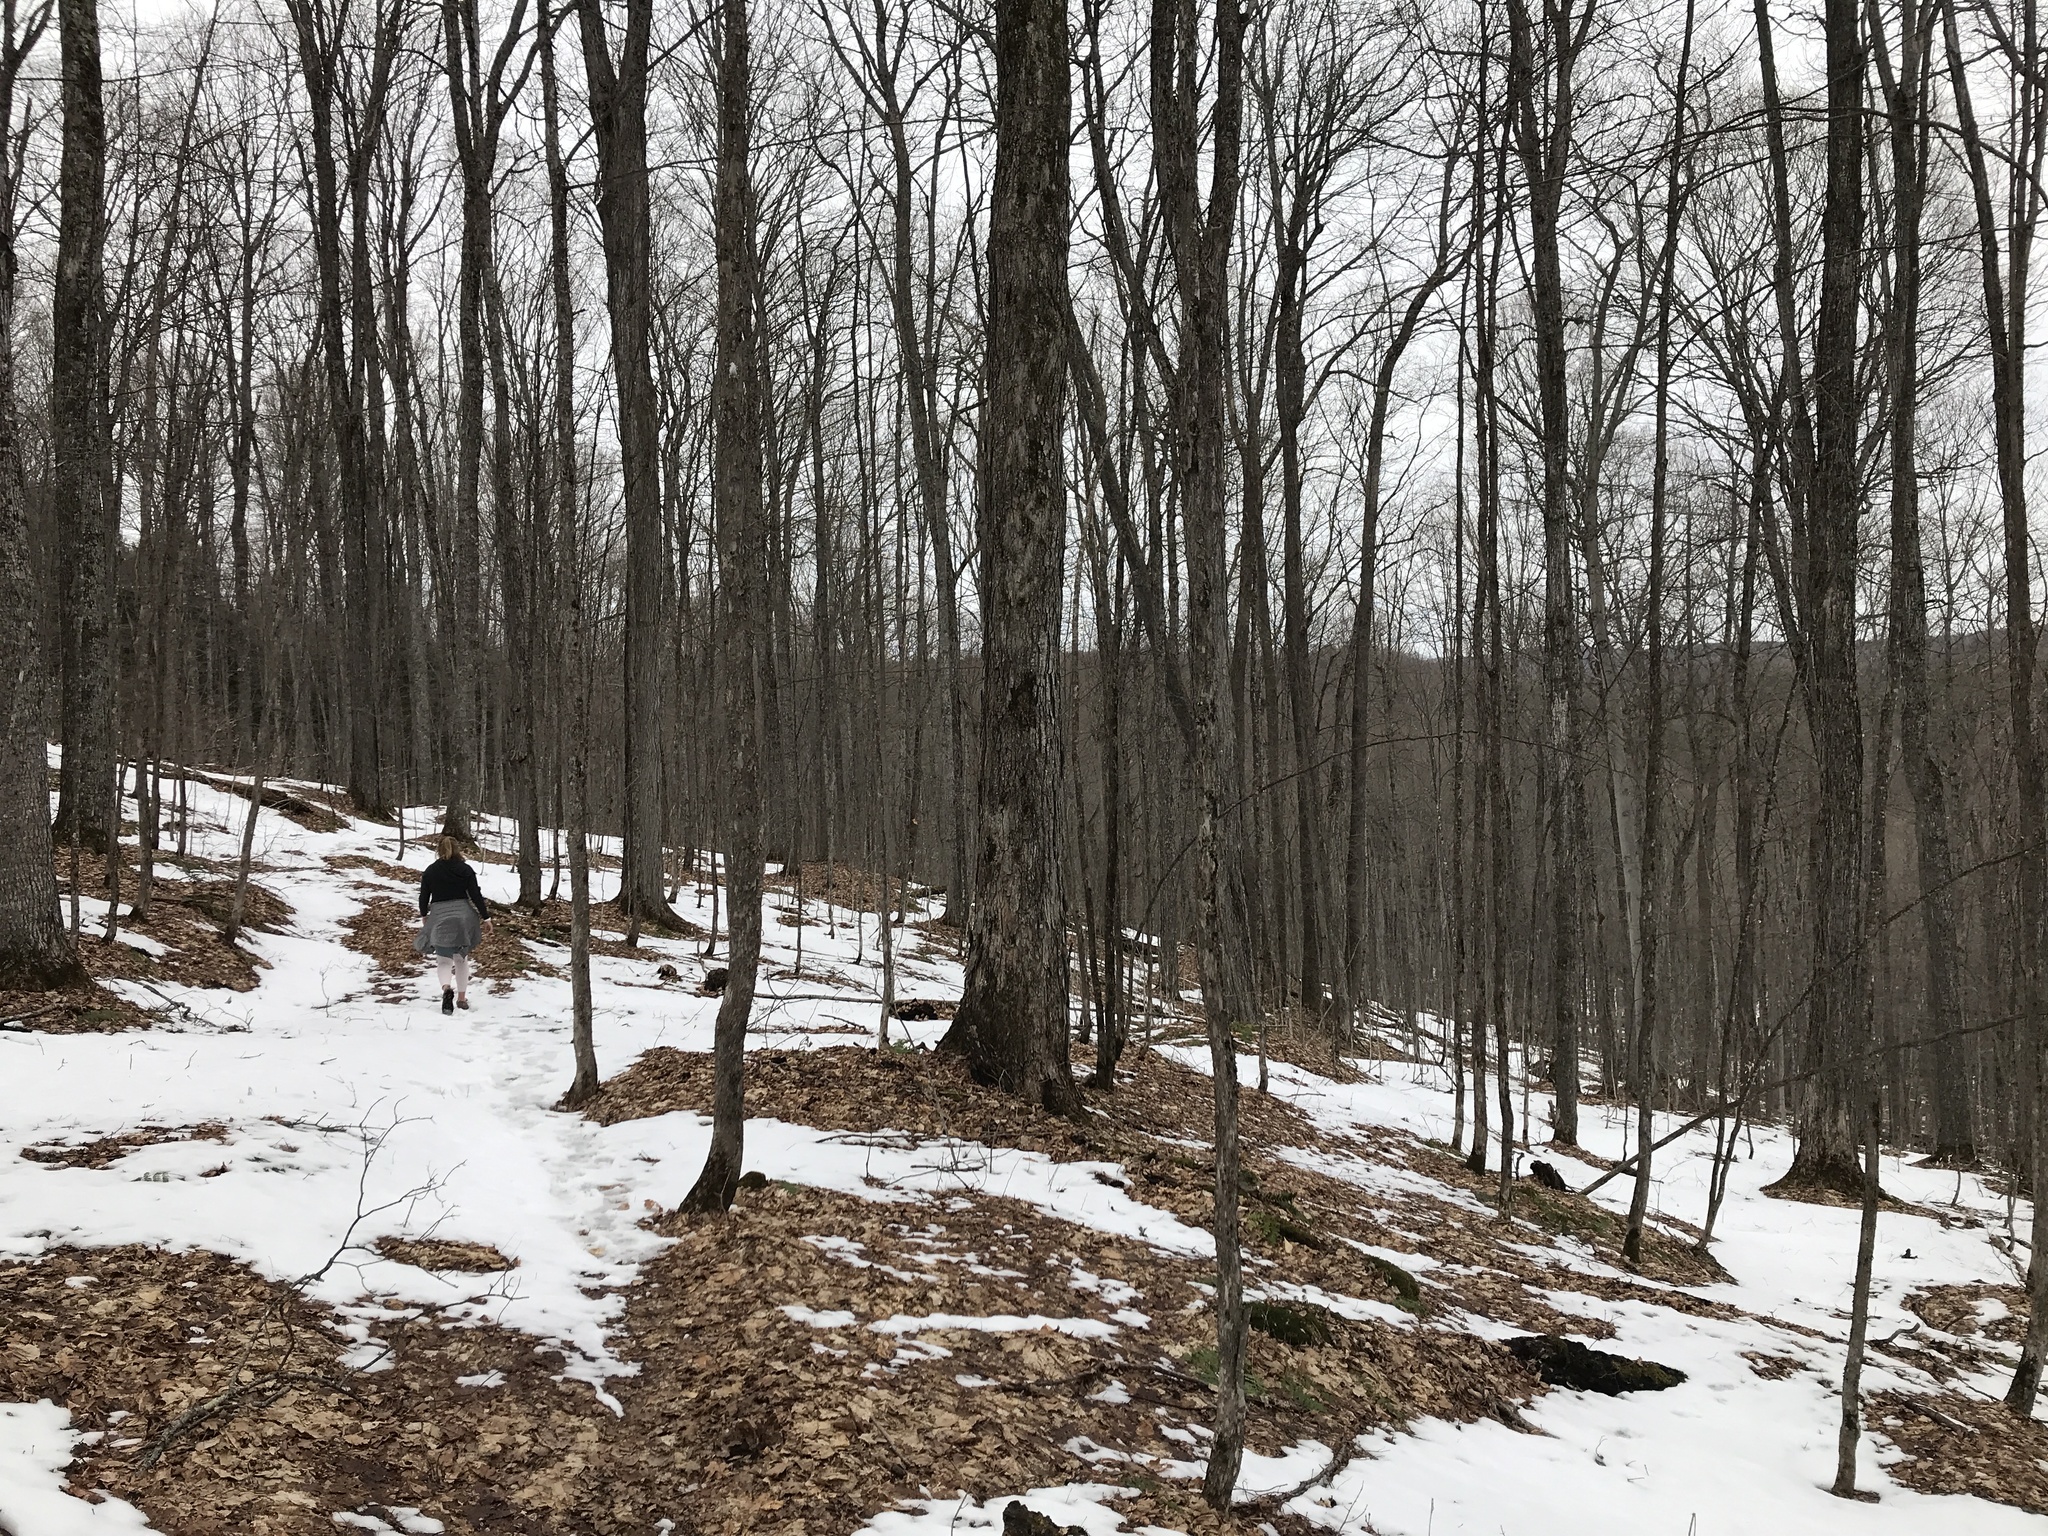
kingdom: Plantae
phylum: Tracheophyta
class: Magnoliopsida
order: Sapindales
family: Sapindaceae
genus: Acer
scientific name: Acer saccharum
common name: Sugar maple
